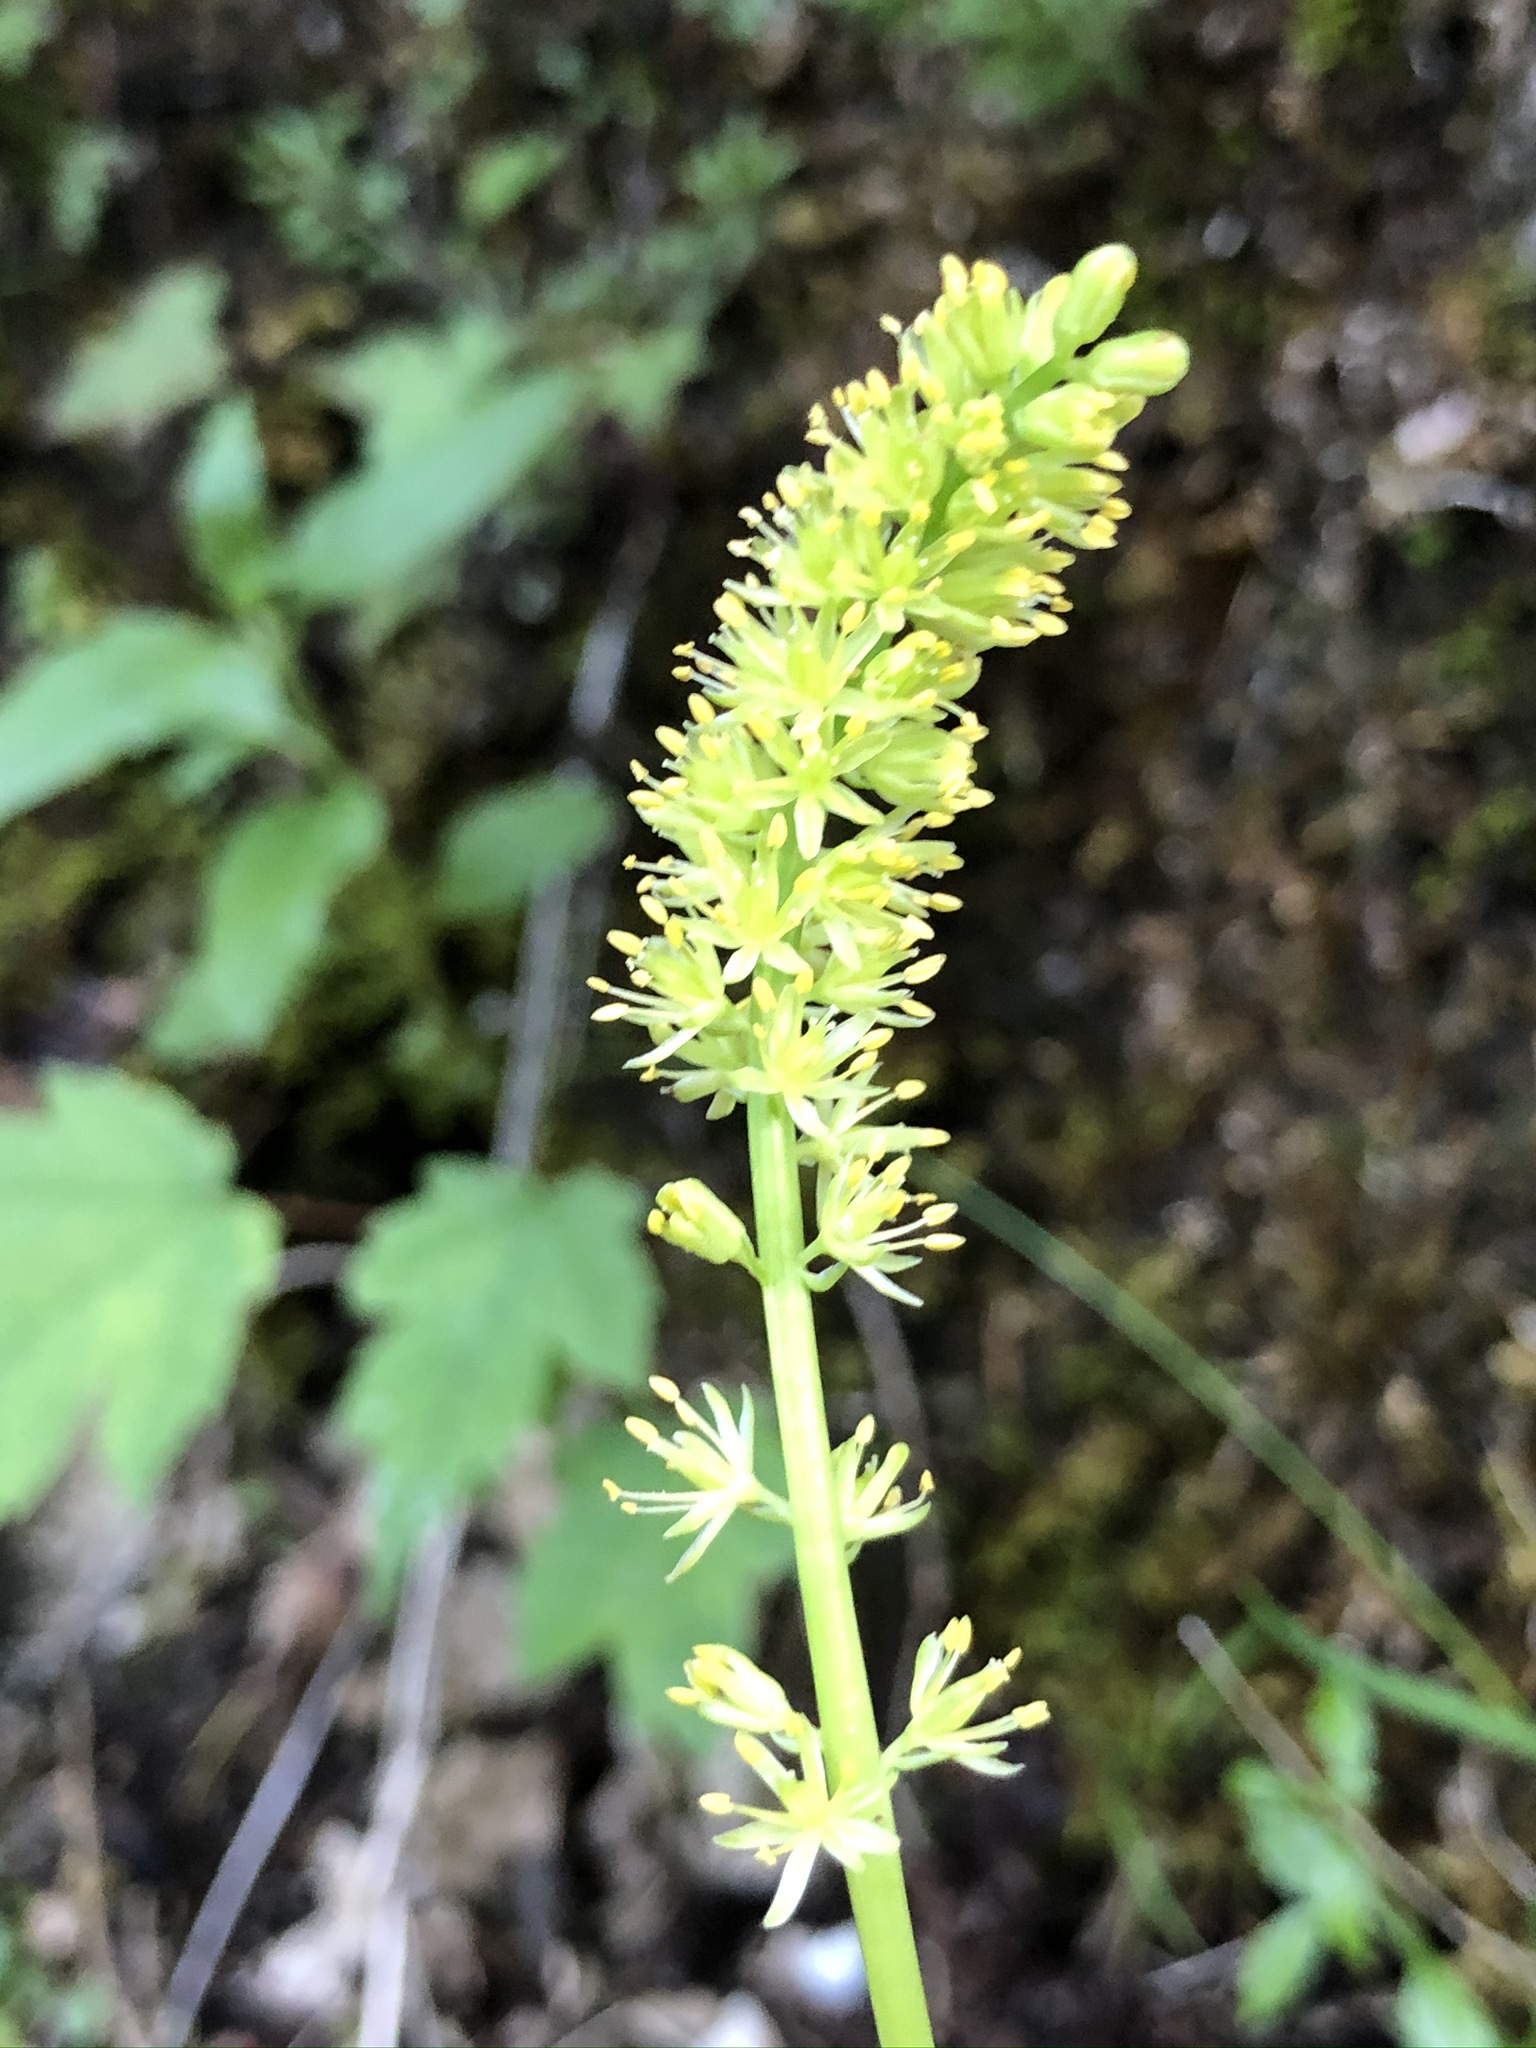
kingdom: Plantae
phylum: Tracheophyta
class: Liliopsida
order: Alismatales
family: Tofieldiaceae
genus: Tofieldia
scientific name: Tofieldia calyculata
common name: German-asphodel
